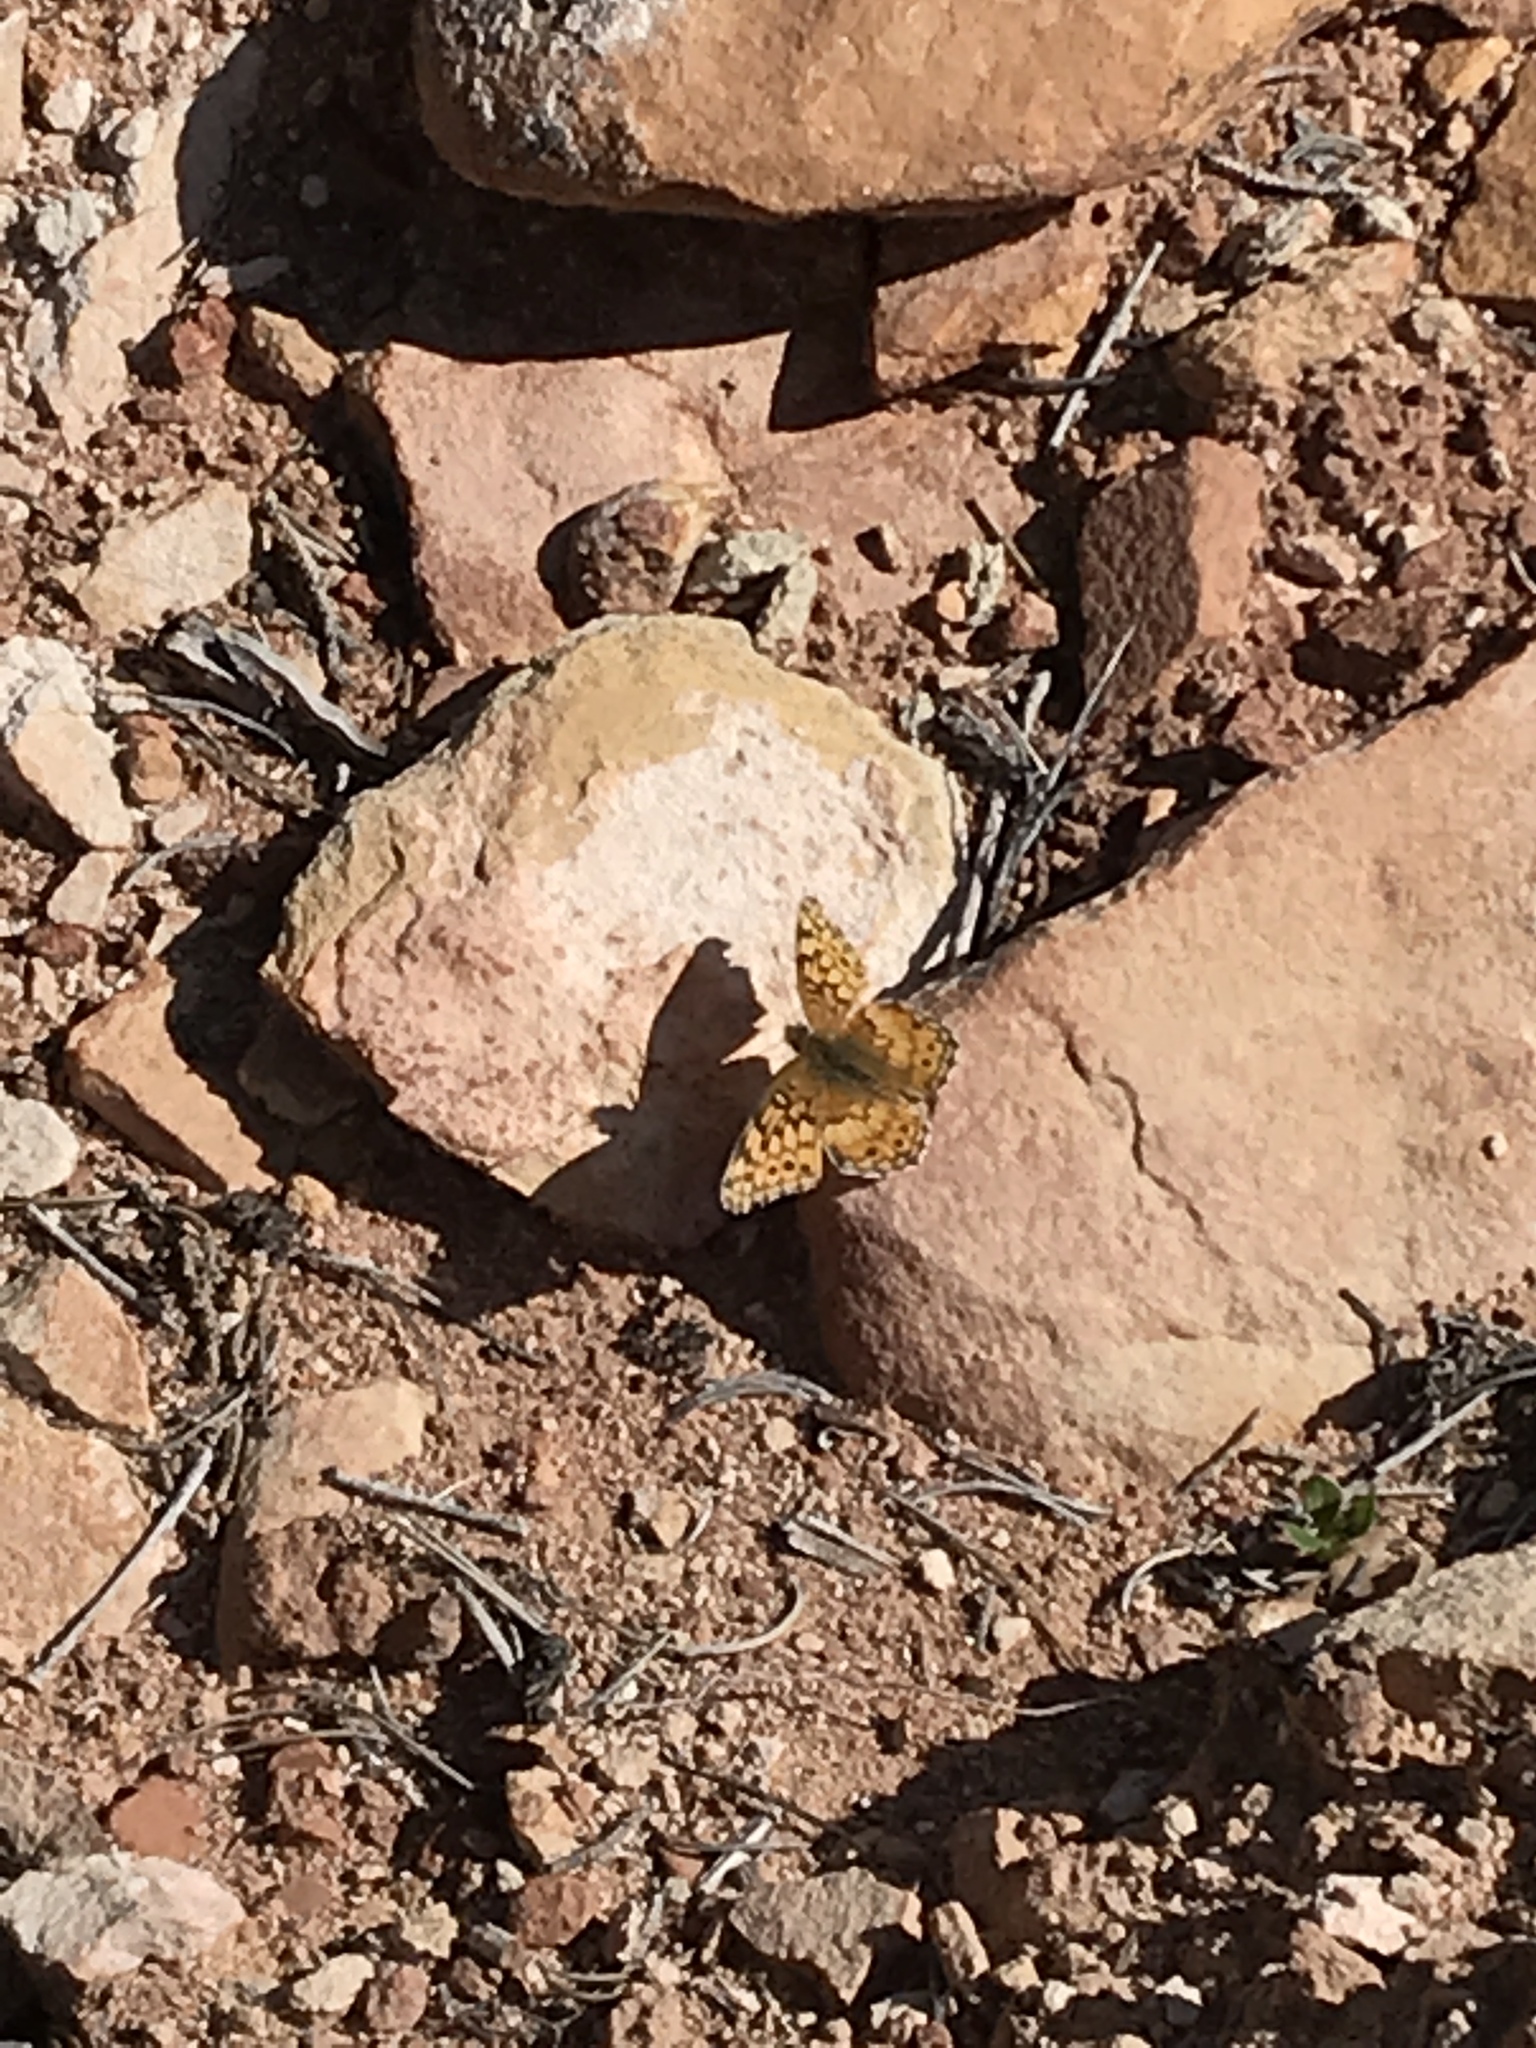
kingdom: Animalia
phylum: Arthropoda
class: Insecta
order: Lepidoptera
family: Nymphalidae
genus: Euptoieta
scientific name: Euptoieta claudia
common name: Variegated fritillary
